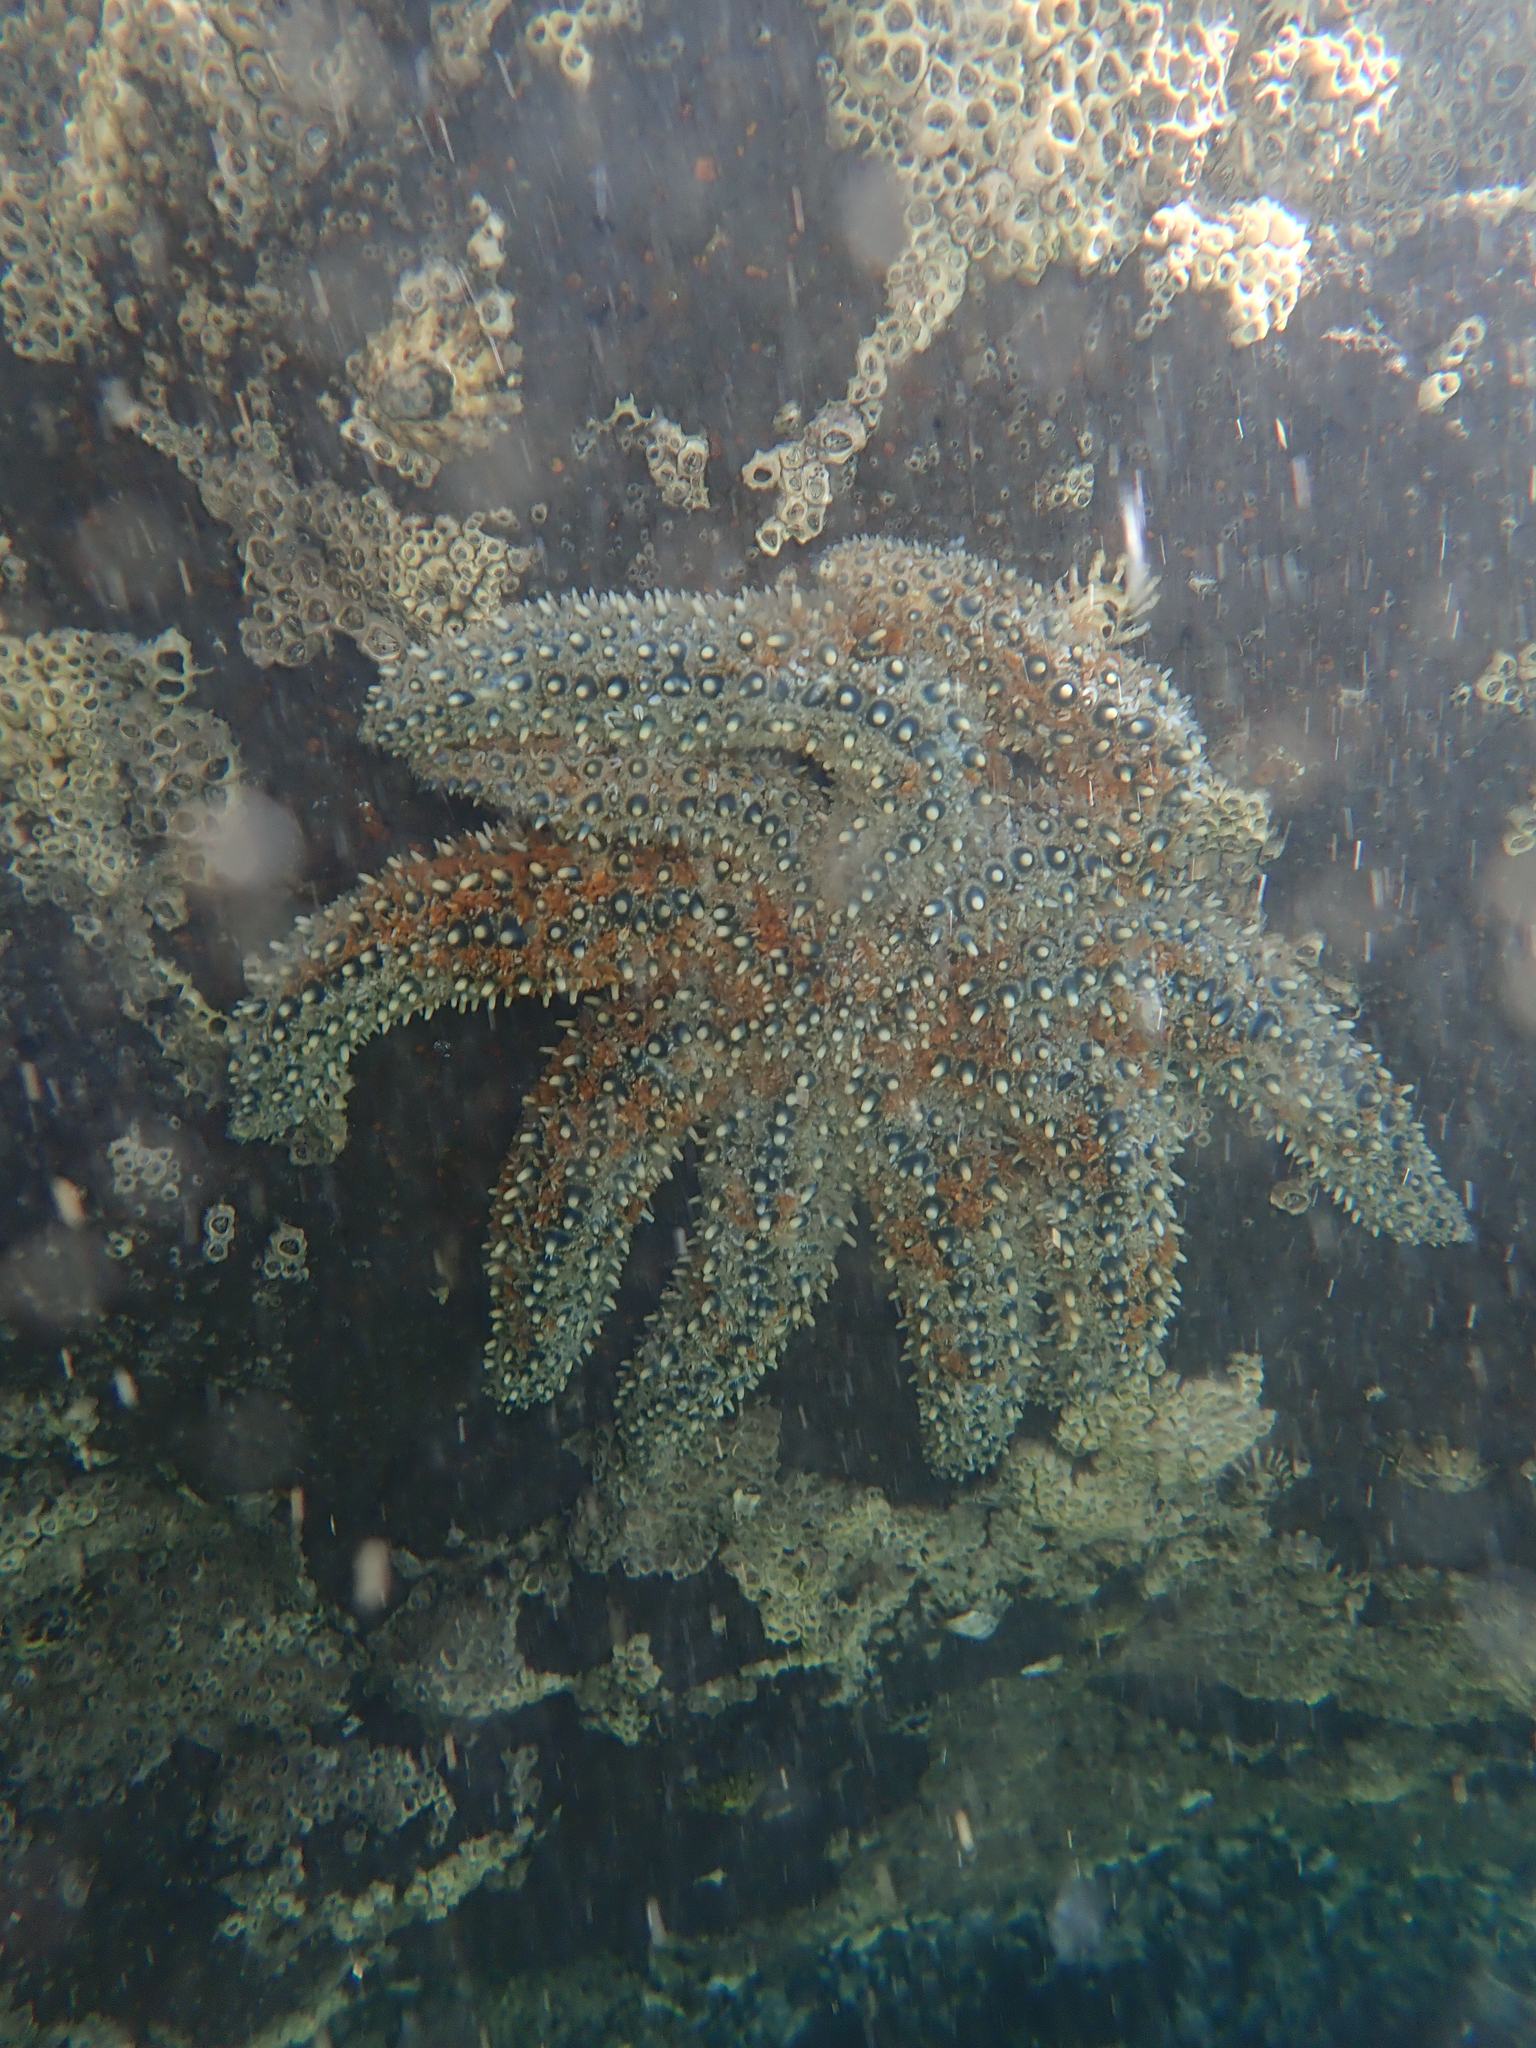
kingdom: Animalia
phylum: Echinodermata
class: Asteroidea
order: Forcipulatida
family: Asteriidae
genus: Coscinasterias
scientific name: Coscinasterias muricata
